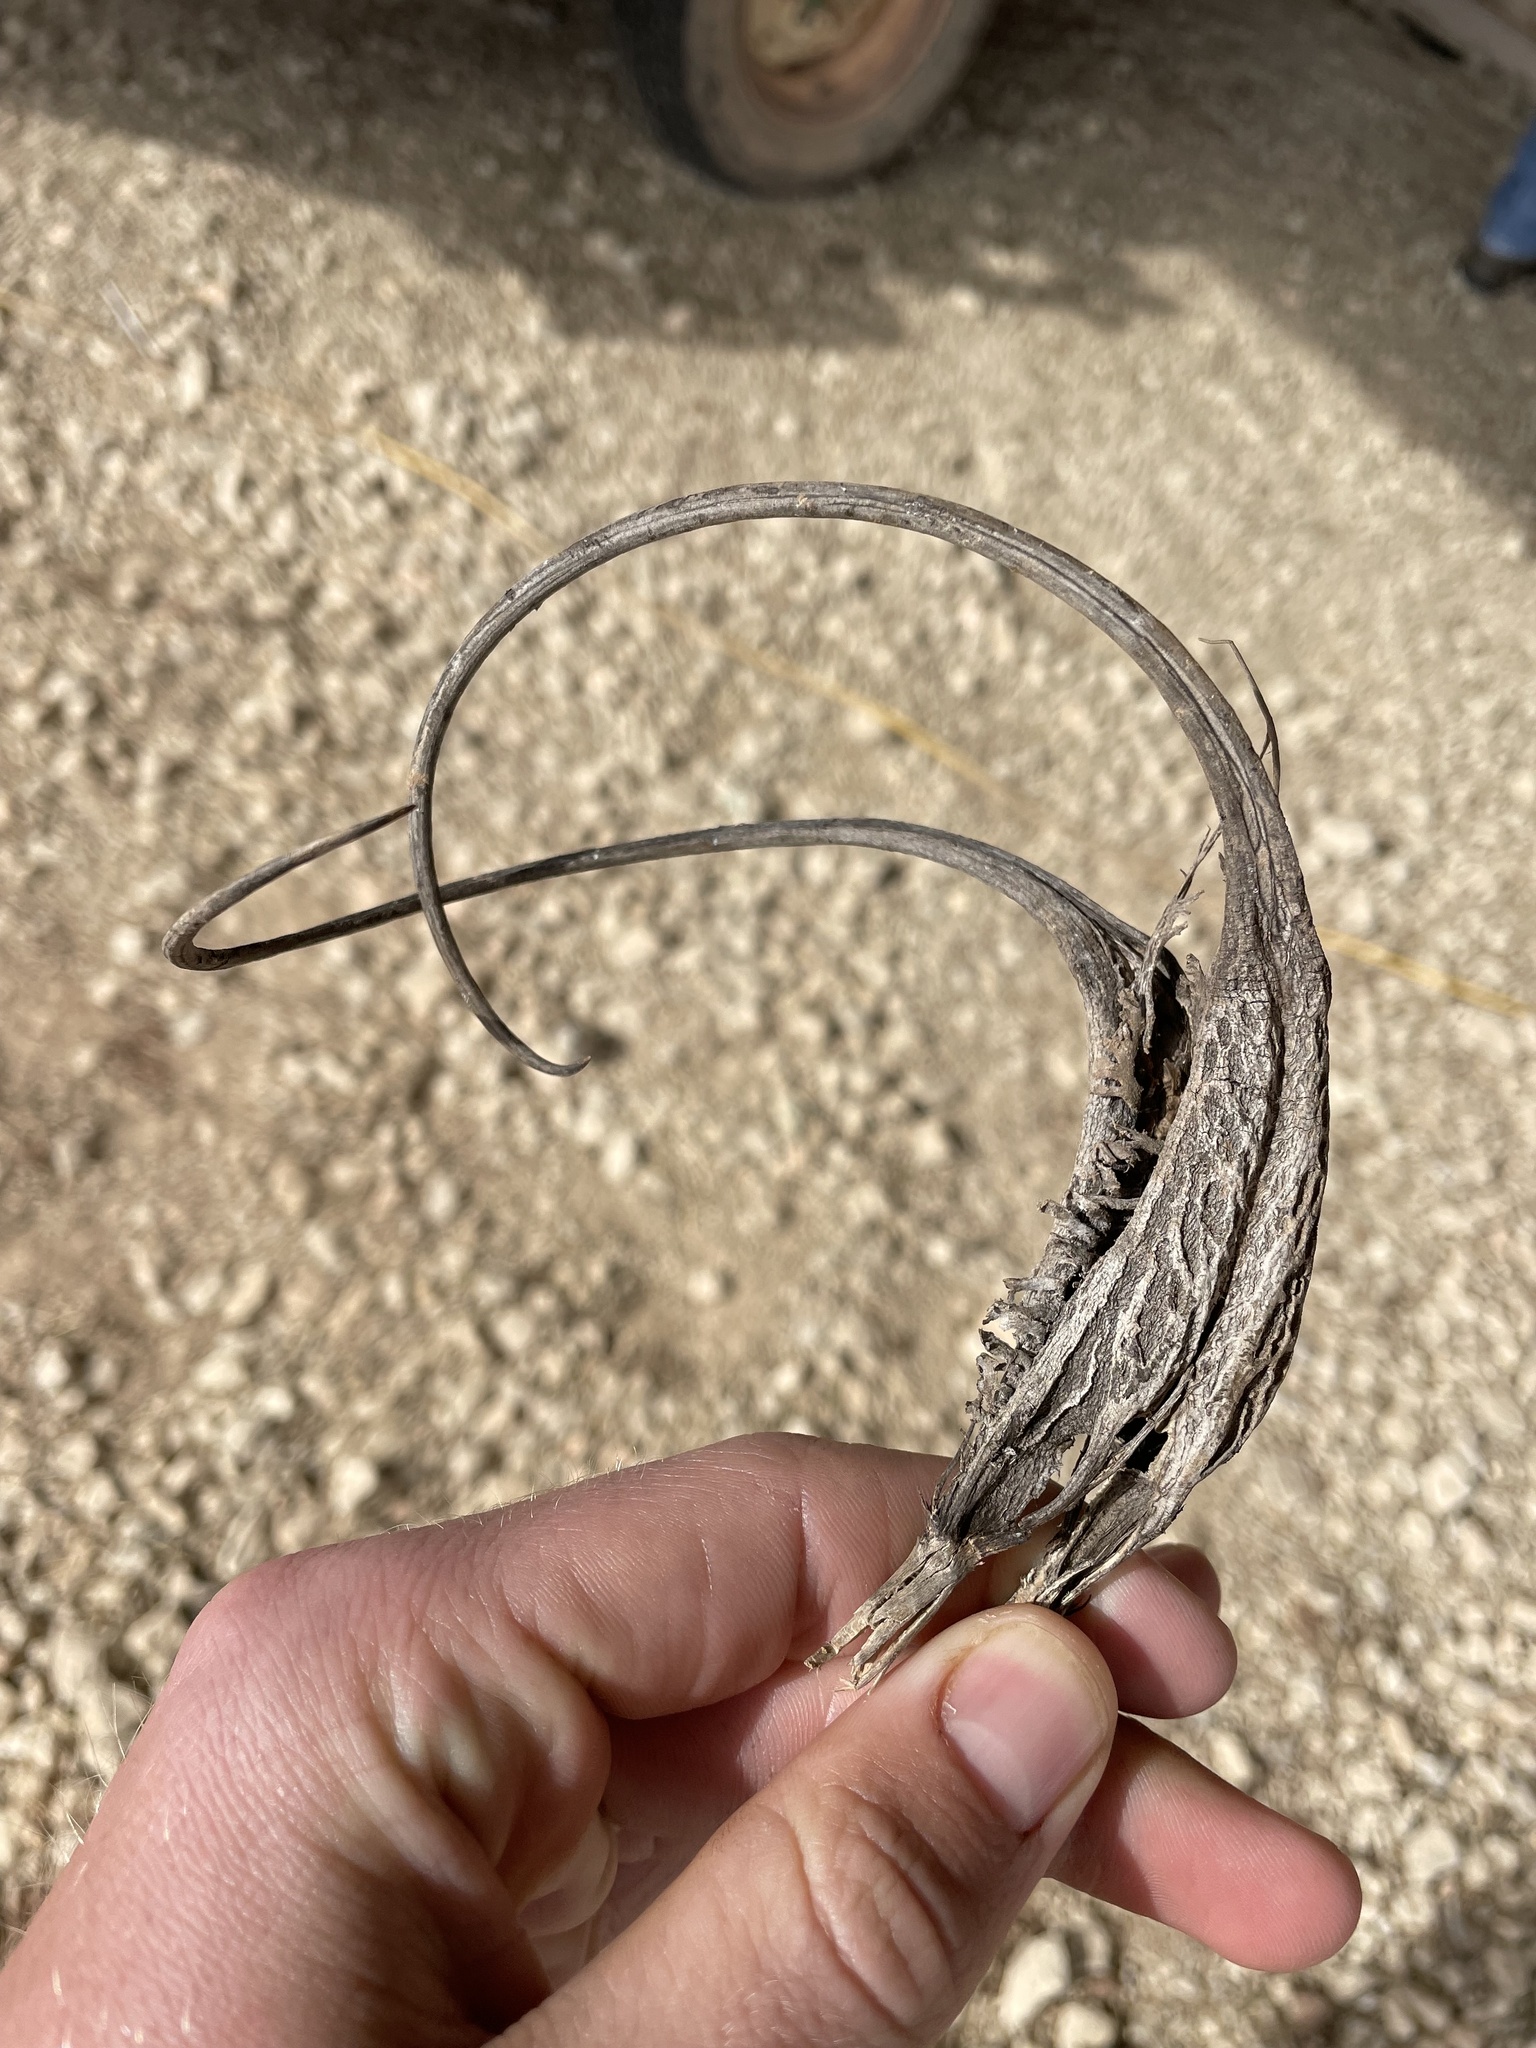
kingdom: Plantae
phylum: Tracheophyta
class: Magnoliopsida
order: Lamiales
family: Martyniaceae
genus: Proboscidea
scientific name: Proboscidea louisianica
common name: Elephant tusks
